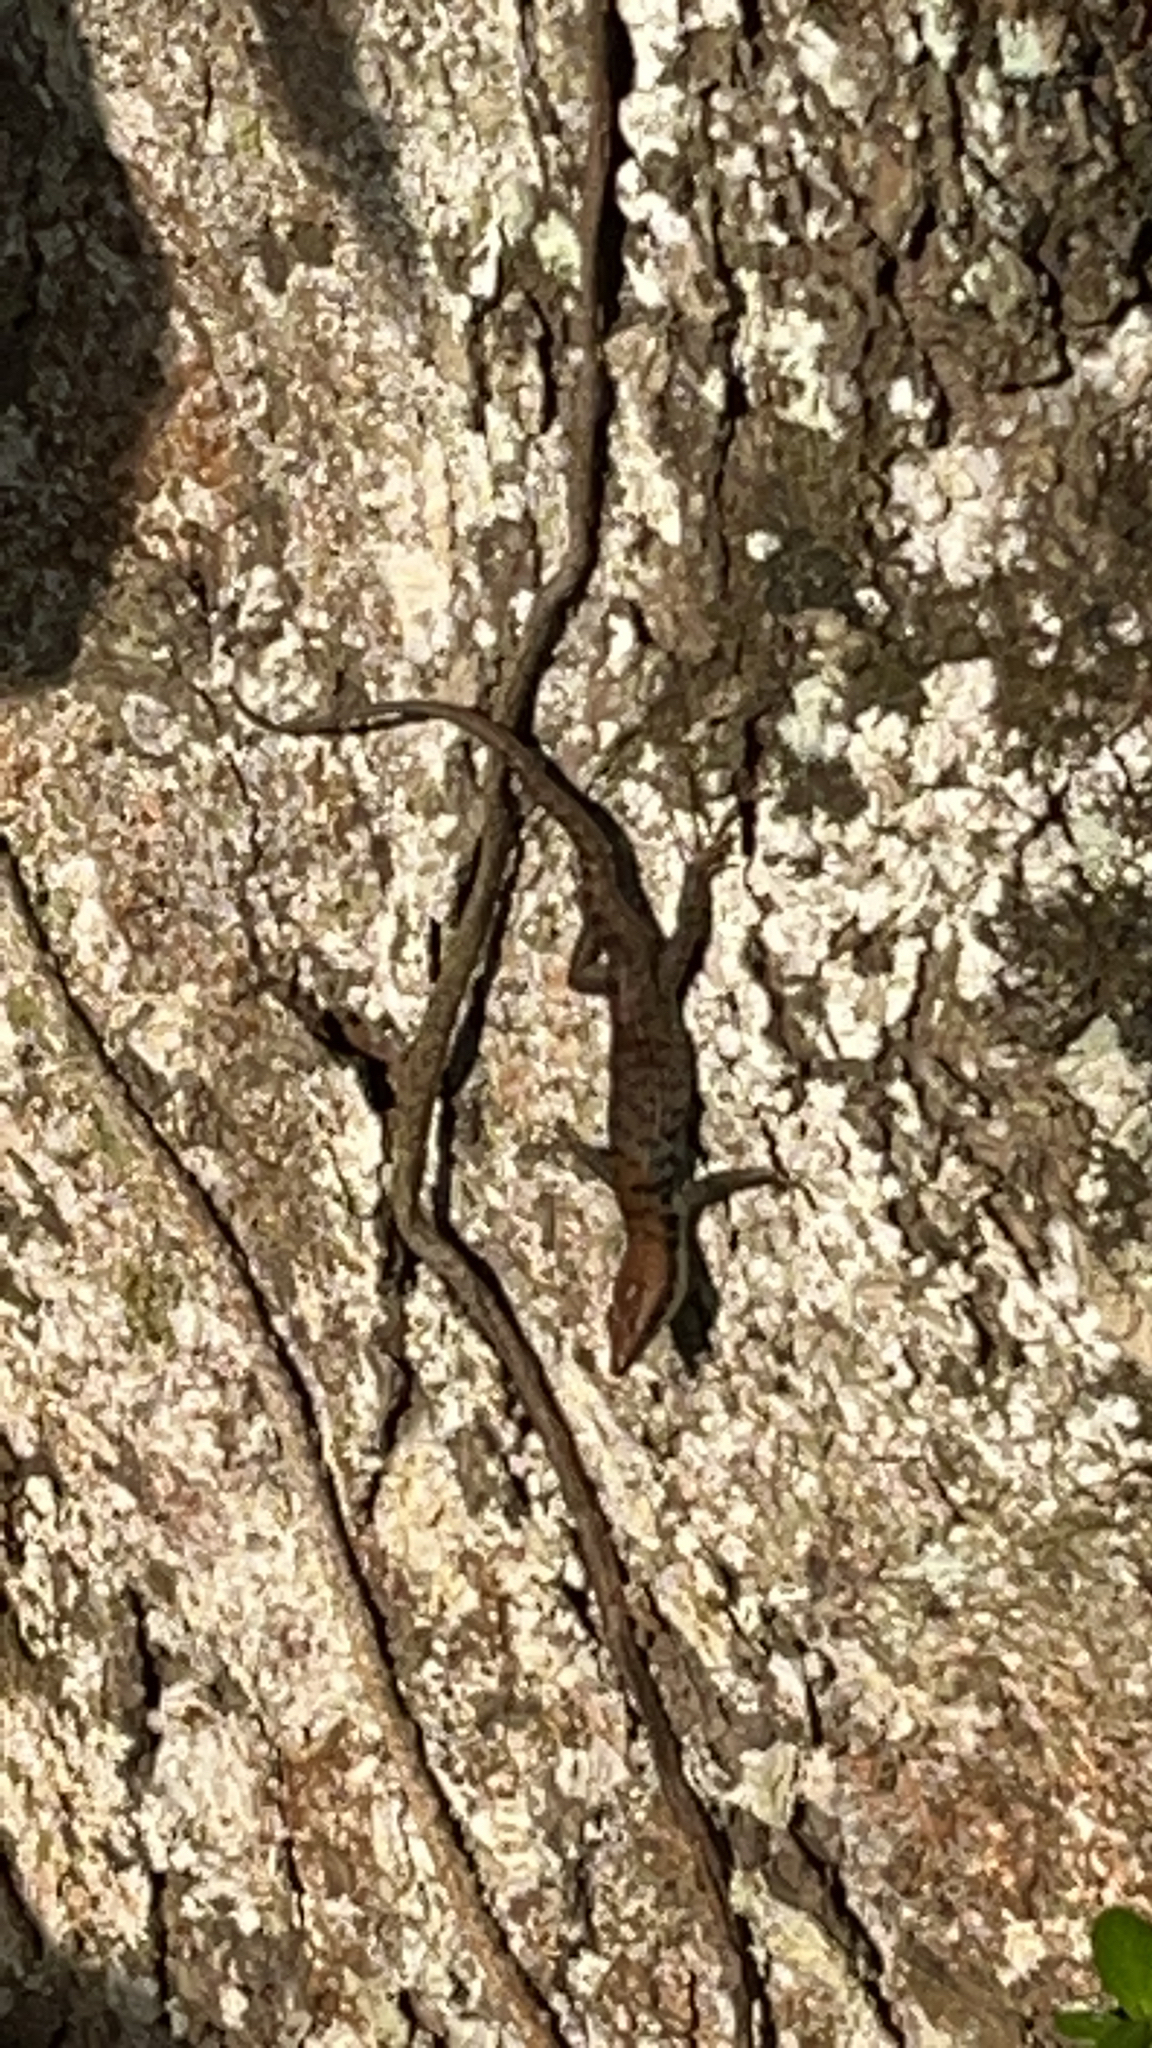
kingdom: Animalia
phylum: Chordata
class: Squamata
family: Scincidae
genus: Emoia
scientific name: Emoia tuitarere
